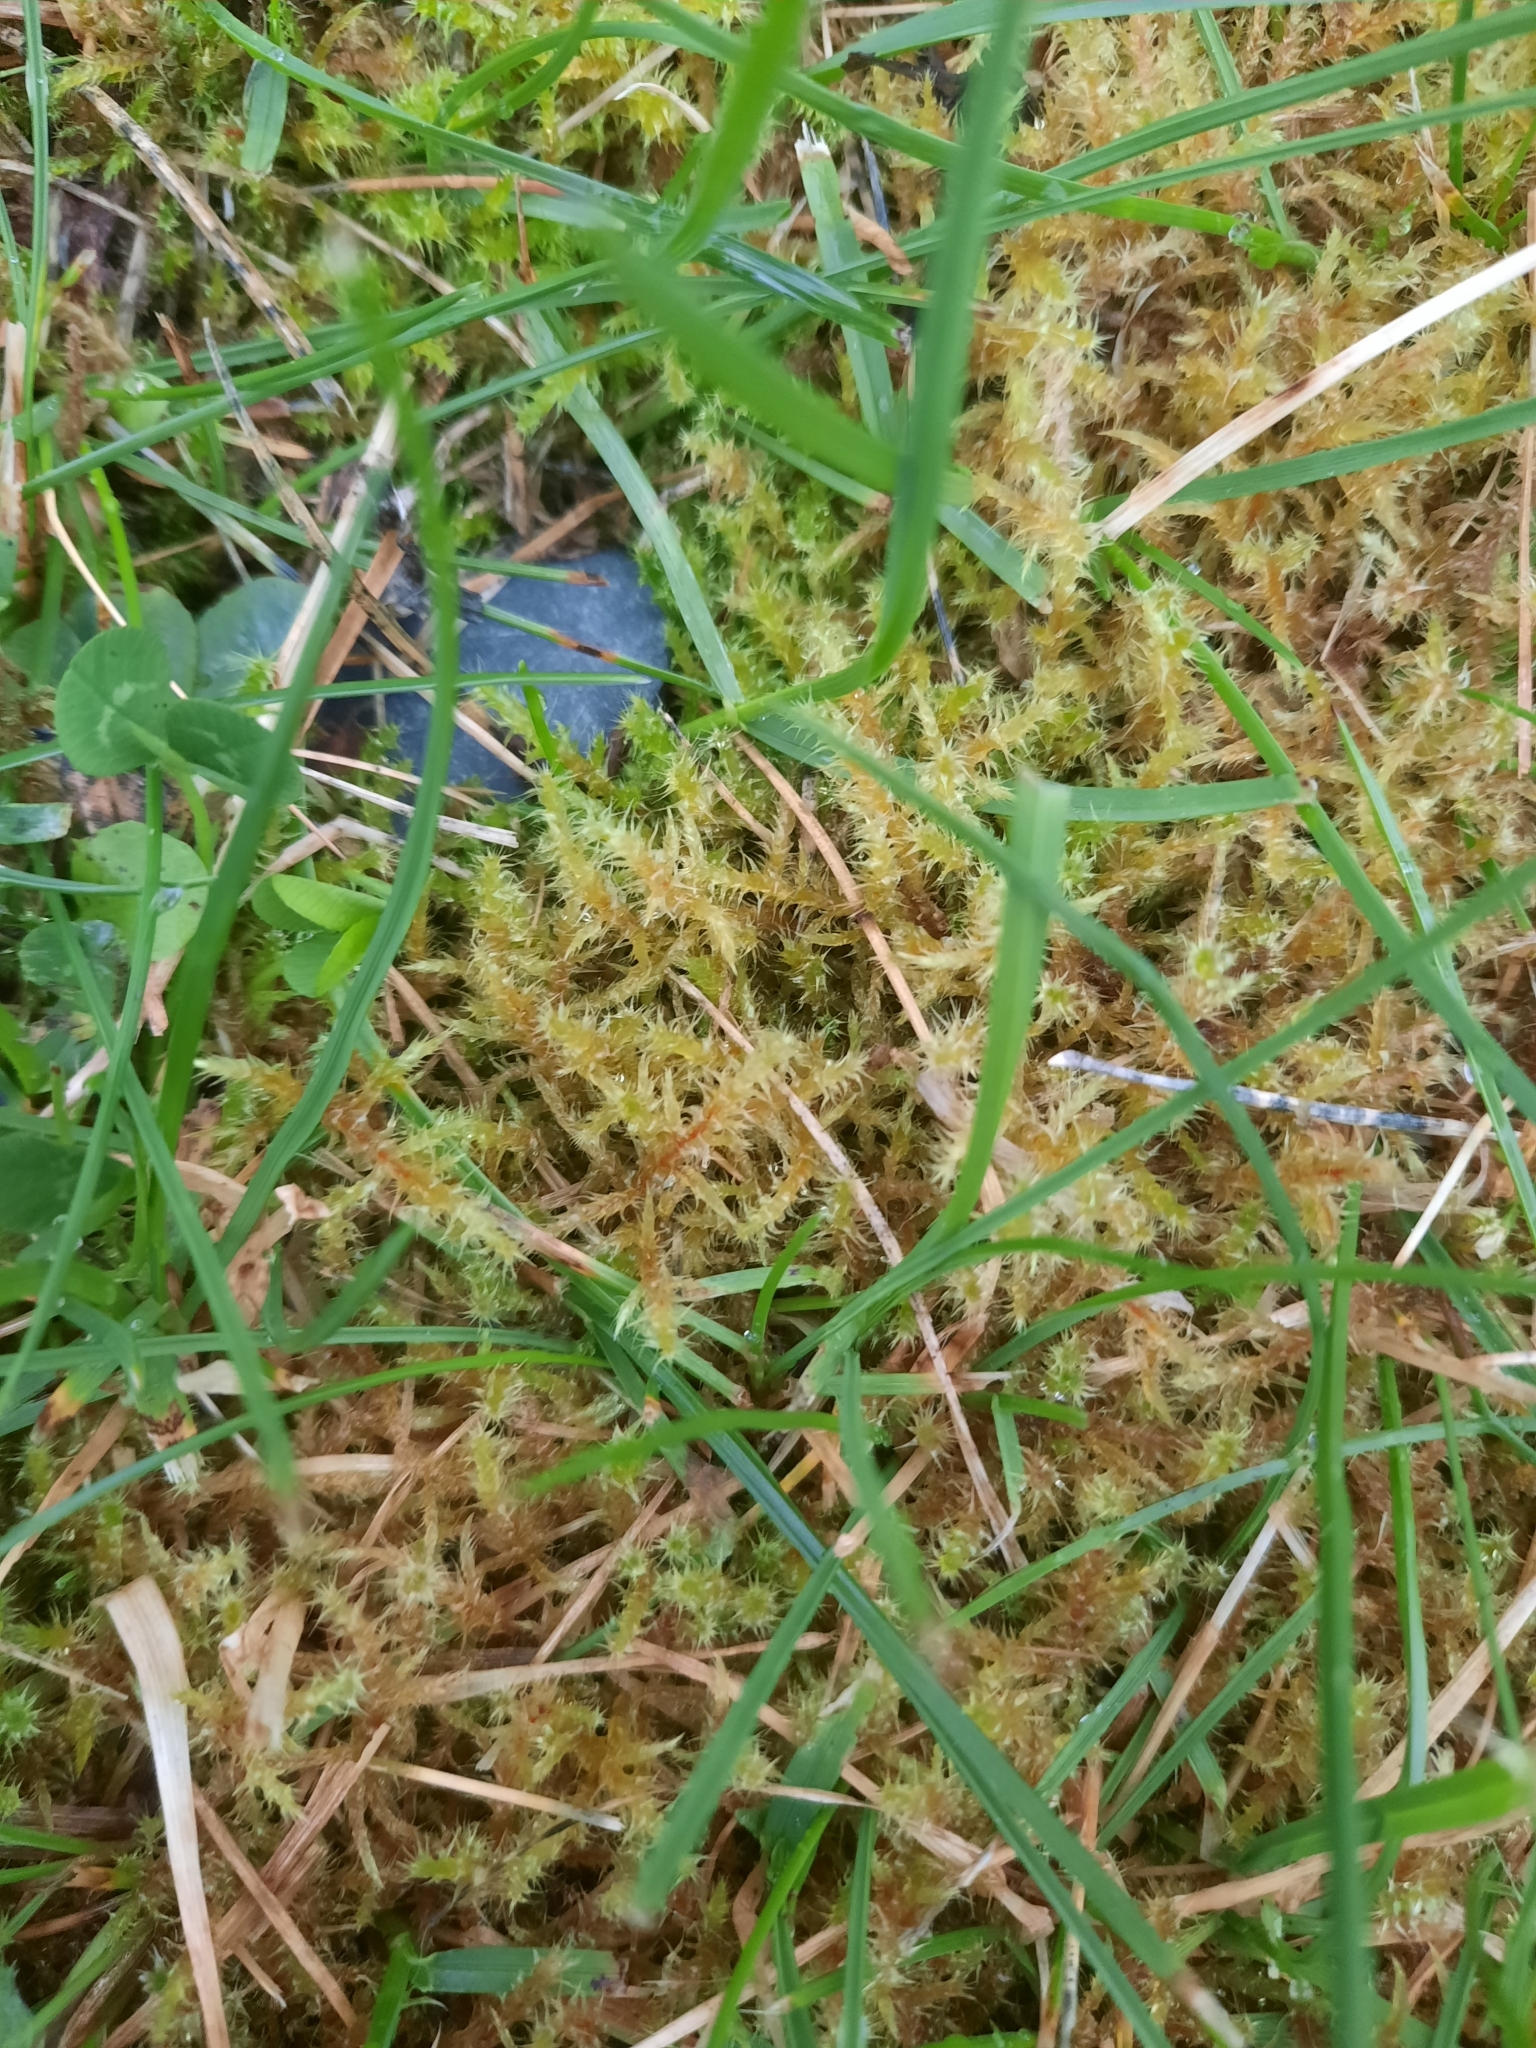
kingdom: Plantae
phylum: Bryophyta
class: Bryopsida
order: Hypnales
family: Hylocomiaceae
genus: Rhytidiadelphus
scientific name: Rhytidiadelphus squarrosus
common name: Springy turf-moss
